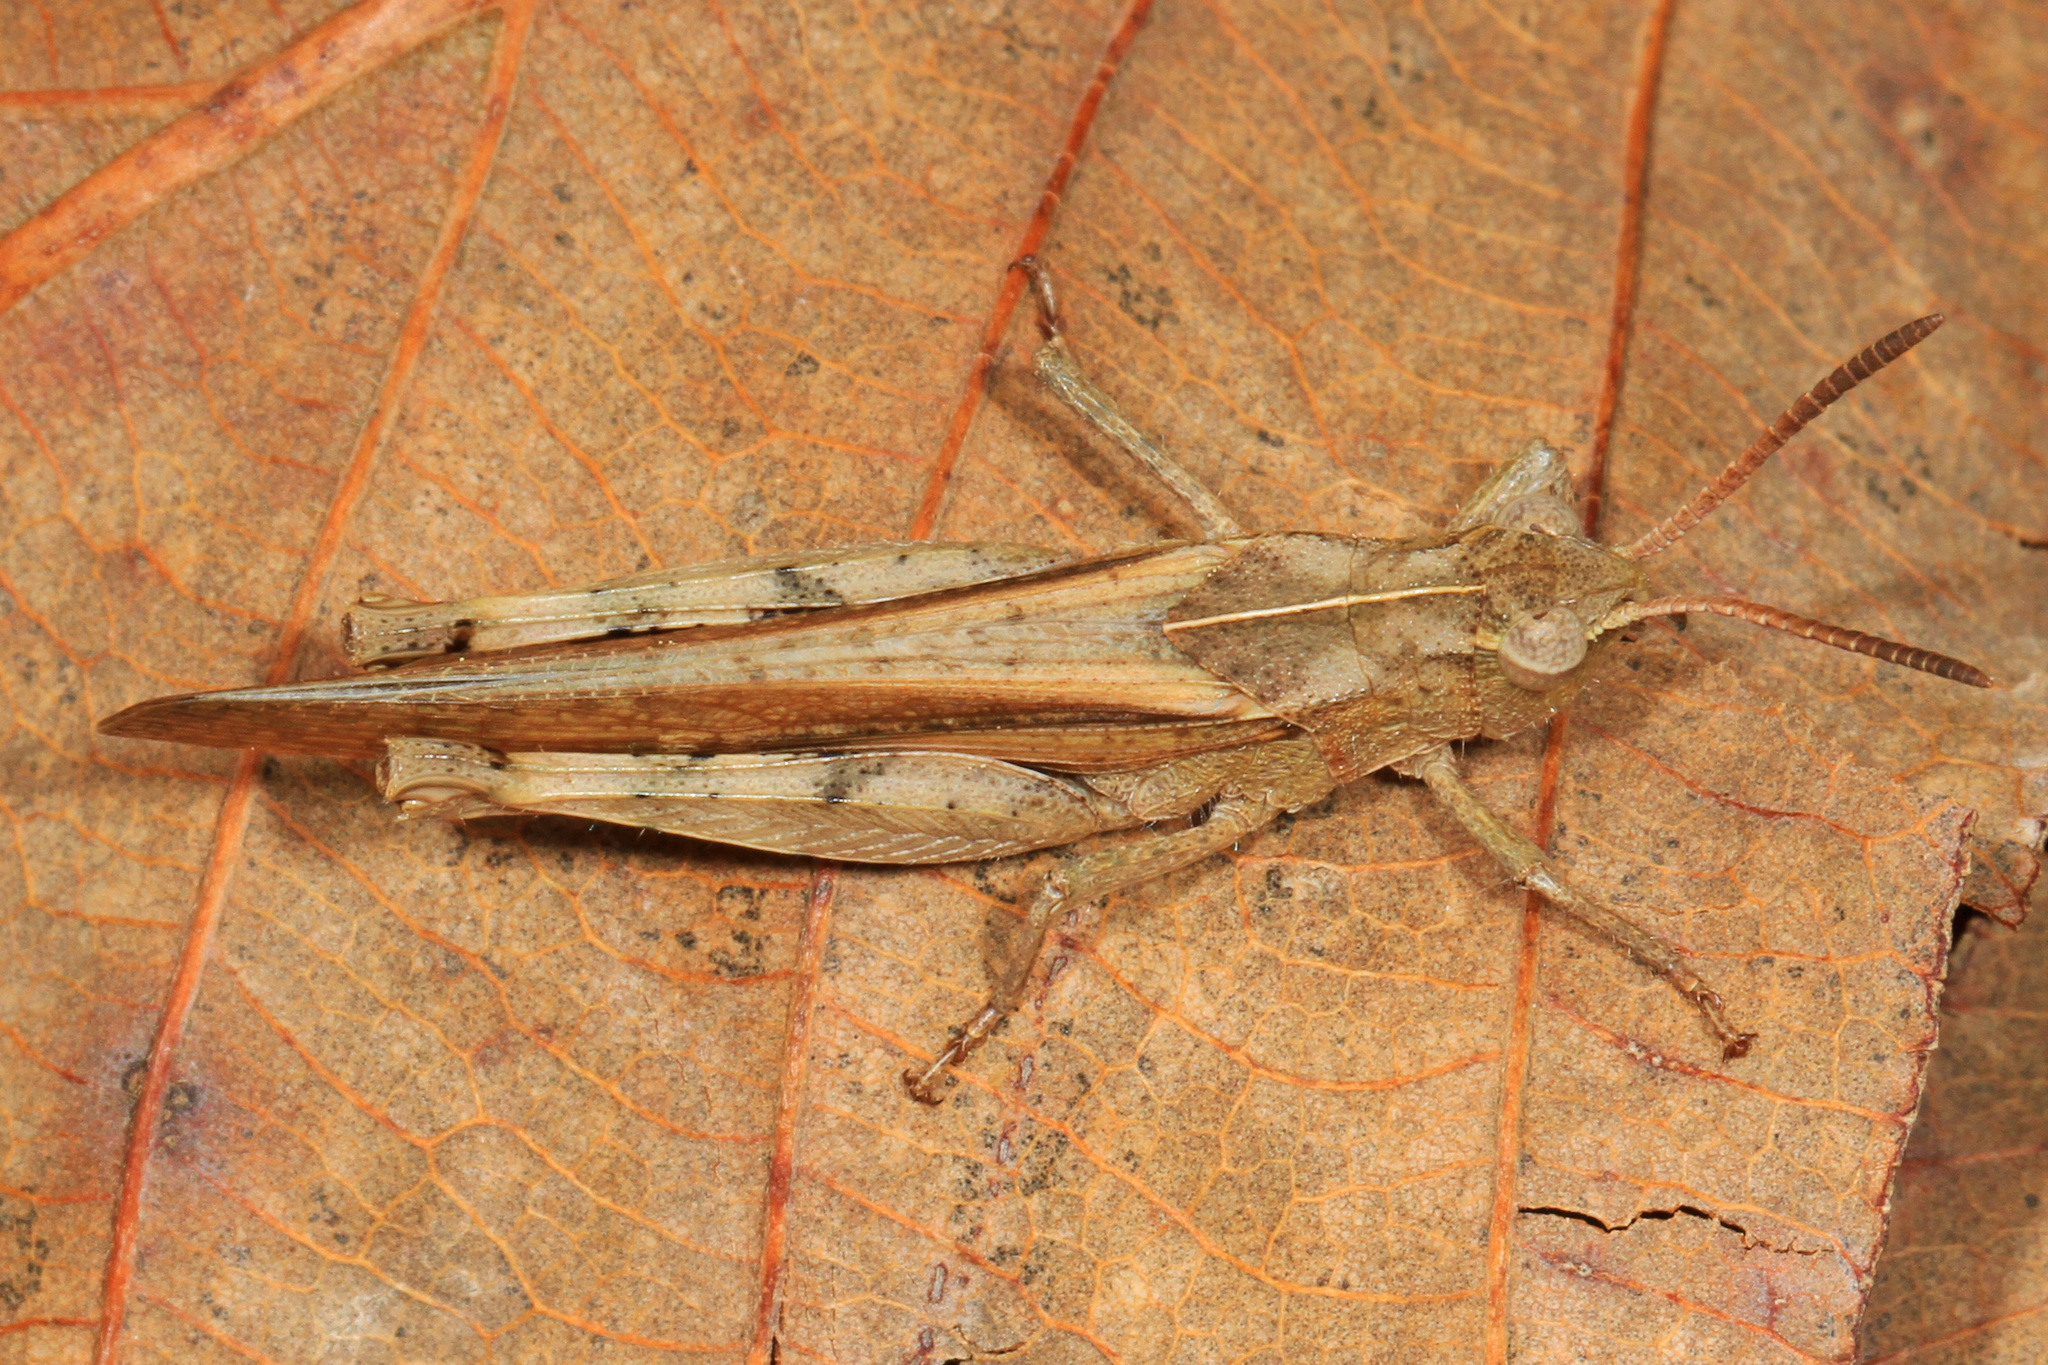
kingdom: Animalia
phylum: Arthropoda
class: Insecta
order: Orthoptera
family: Acrididae
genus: Chortophaga
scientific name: Chortophaga viridifasciata
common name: Green-striped grasshopper
